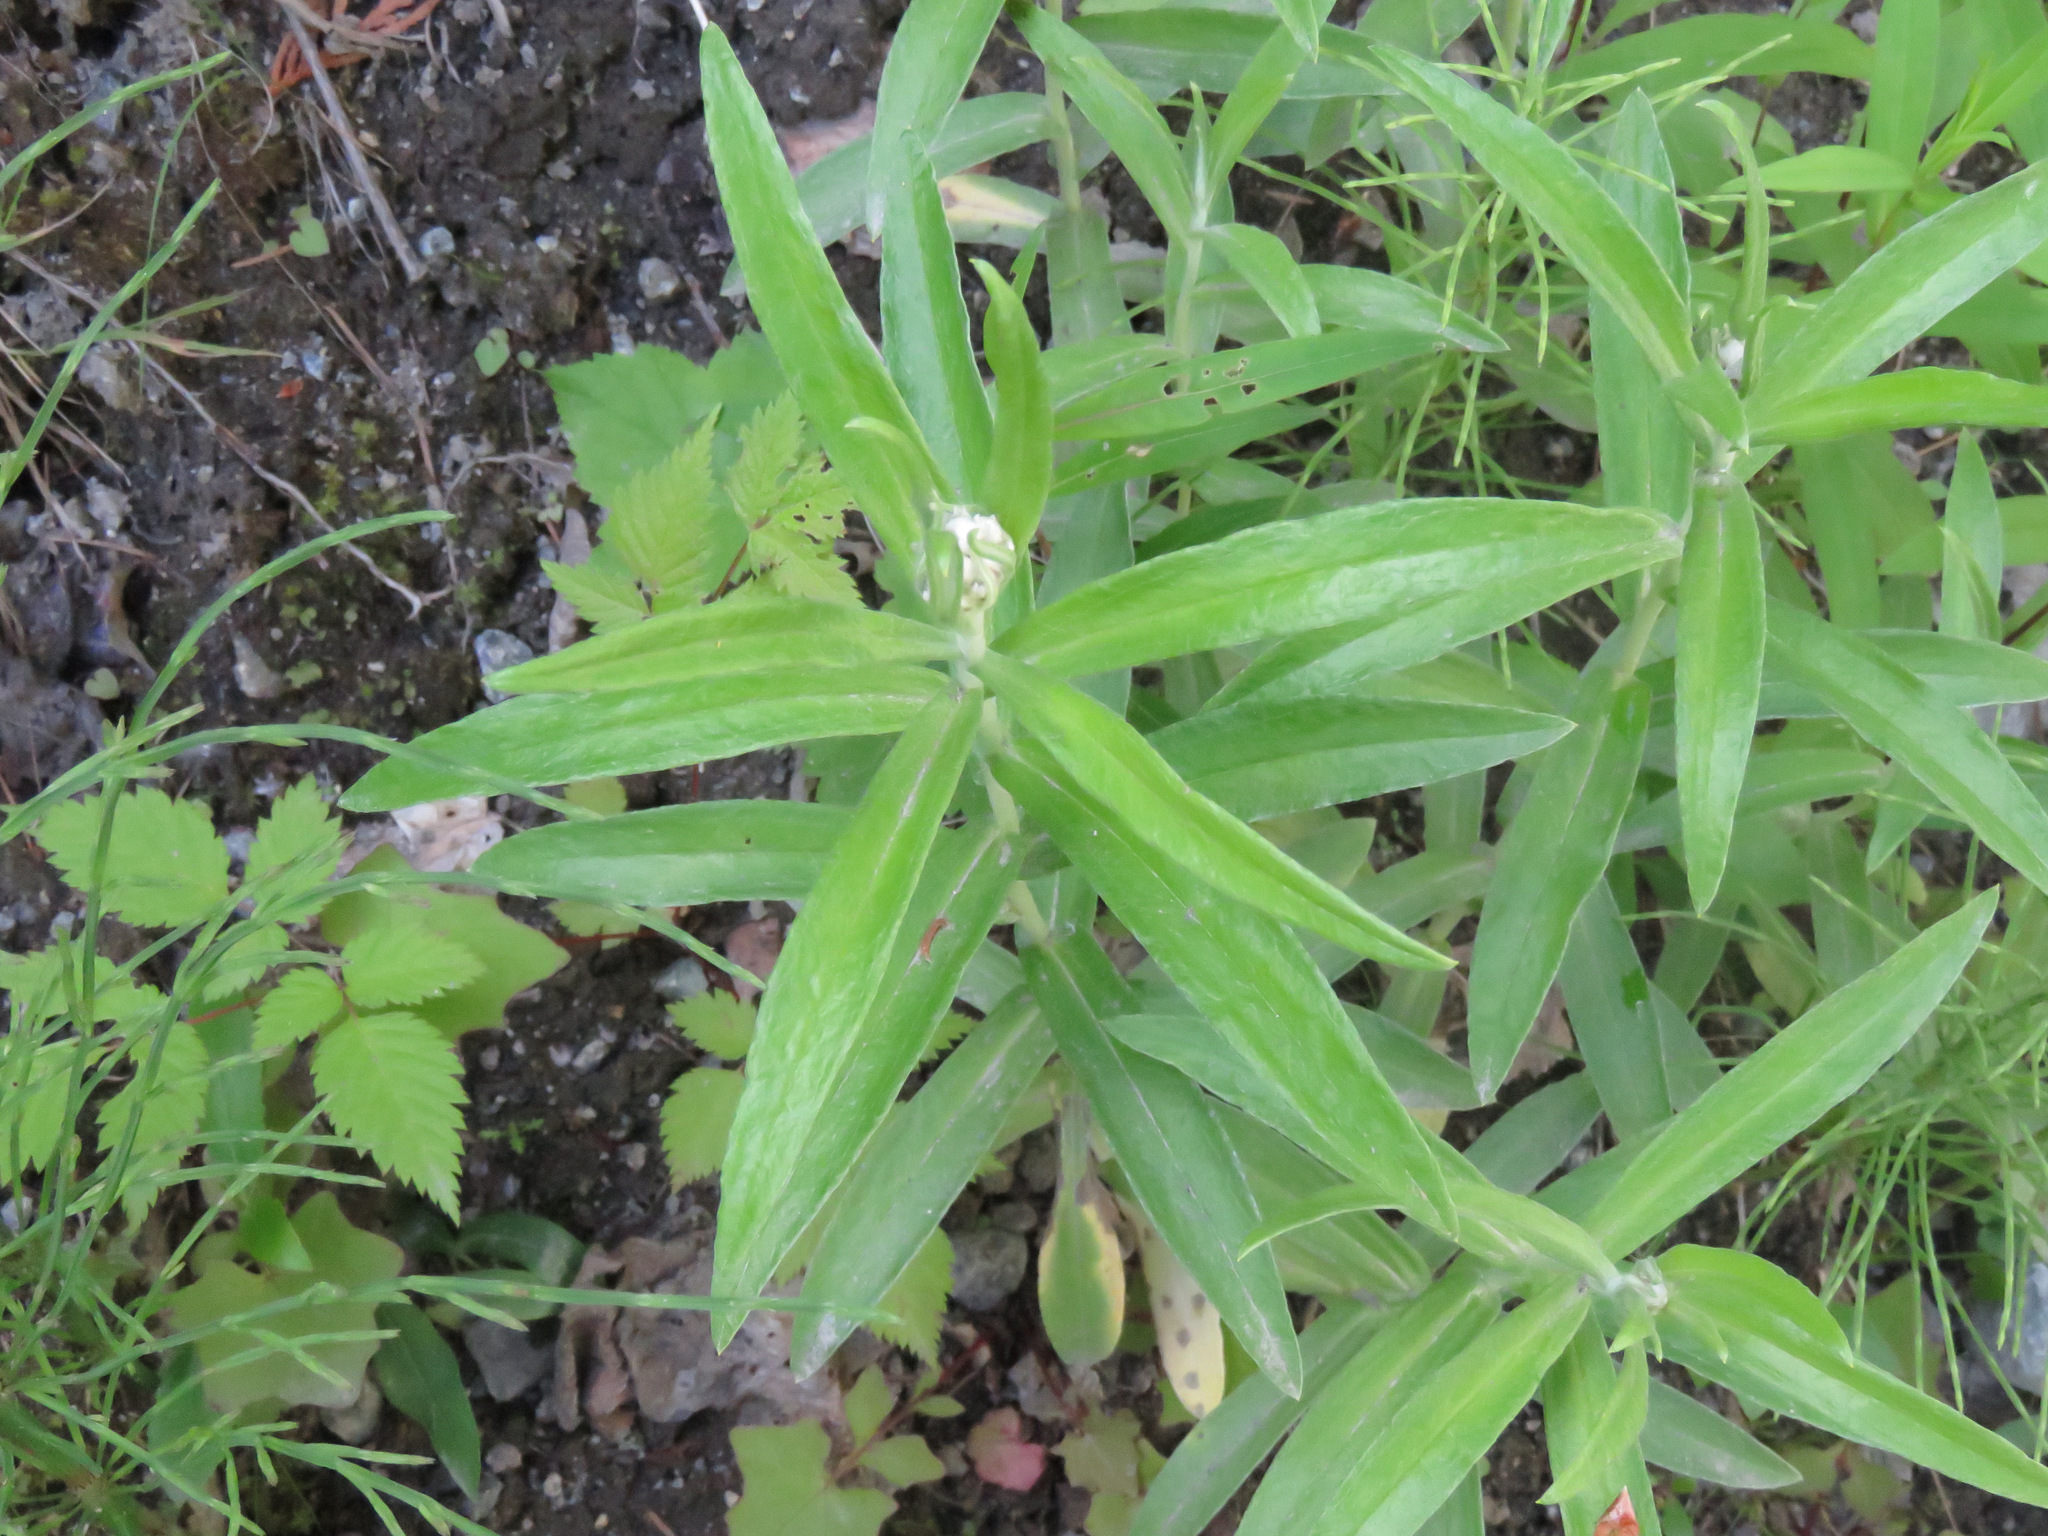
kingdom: Plantae
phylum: Tracheophyta
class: Magnoliopsida
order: Asterales
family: Asteraceae
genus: Anaphalis
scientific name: Anaphalis margaritacea
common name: Pearly everlasting
